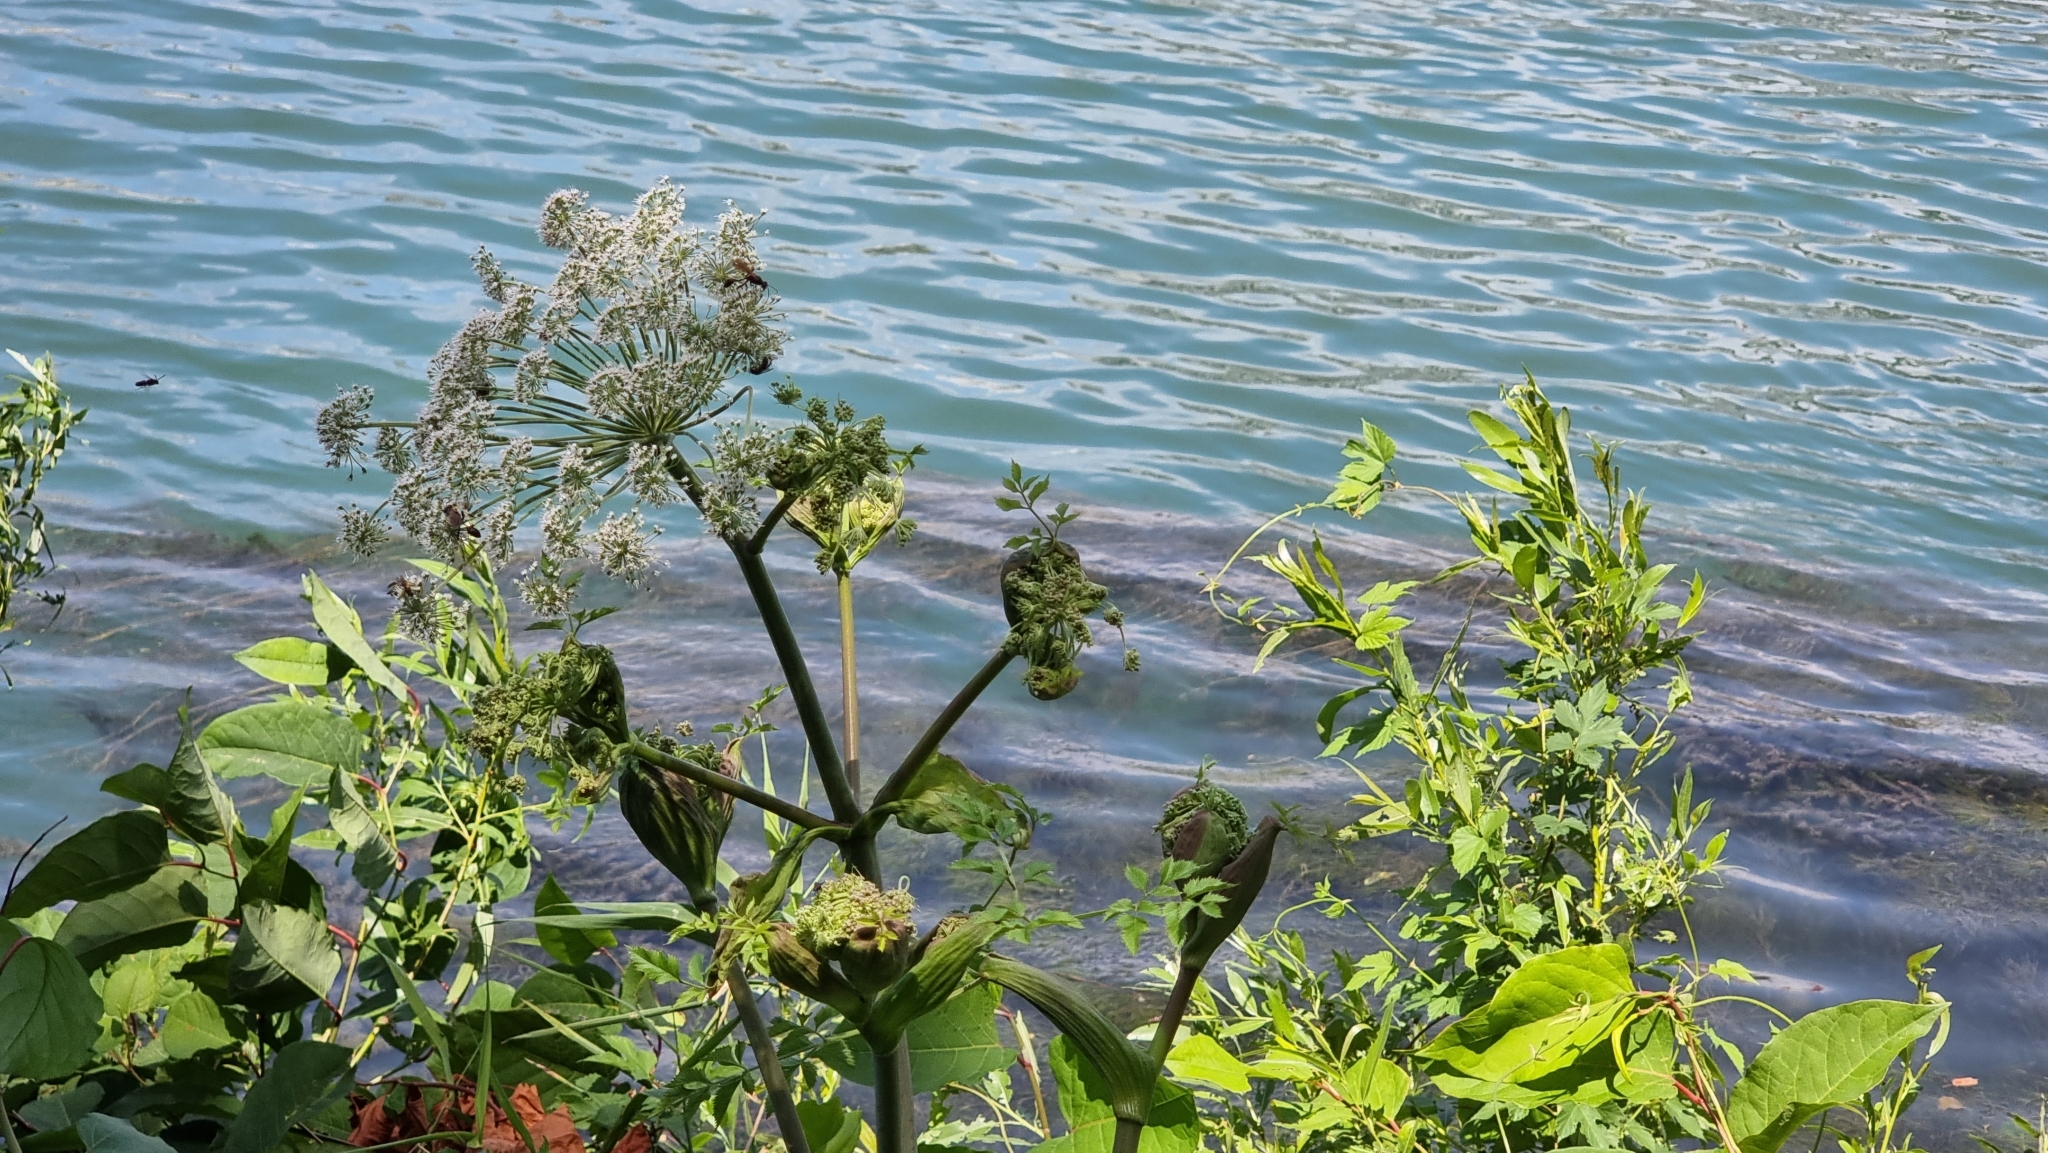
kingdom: Plantae
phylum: Tracheophyta
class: Magnoliopsida
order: Apiales
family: Apiaceae
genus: Heracleum
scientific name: Heracleum sphondylium
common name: Hogweed
